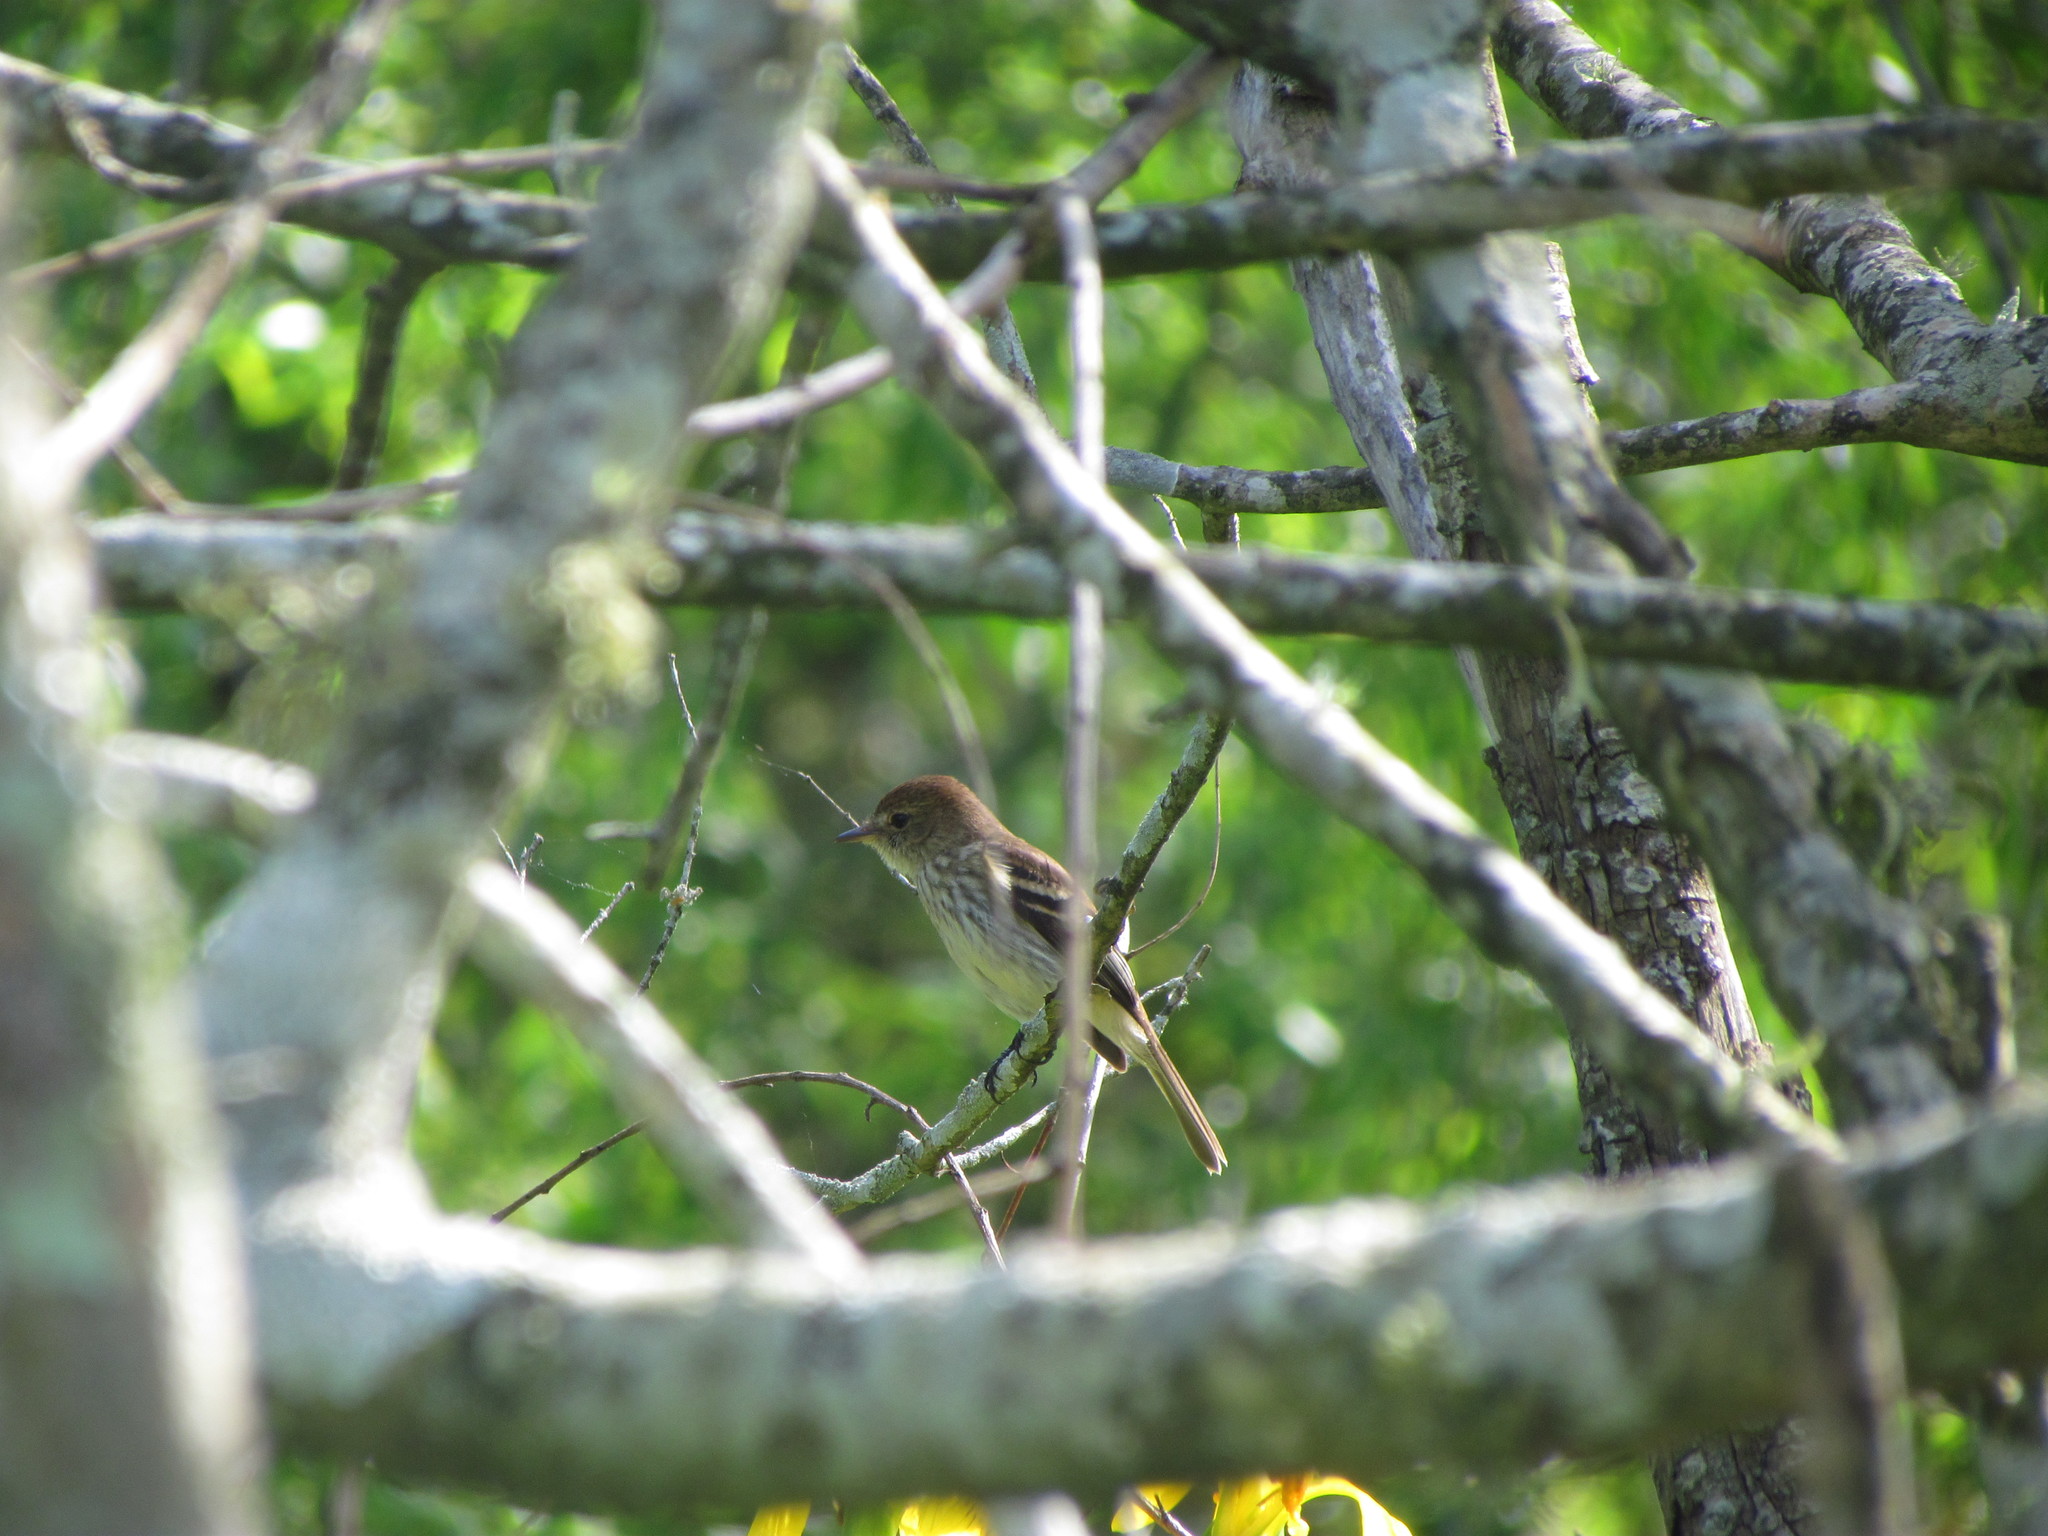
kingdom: Animalia
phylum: Chordata
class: Aves
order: Passeriformes
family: Tyrannidae
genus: Myiophobus
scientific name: Myiophobus fasciatus
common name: Bran-colored flycatcher
